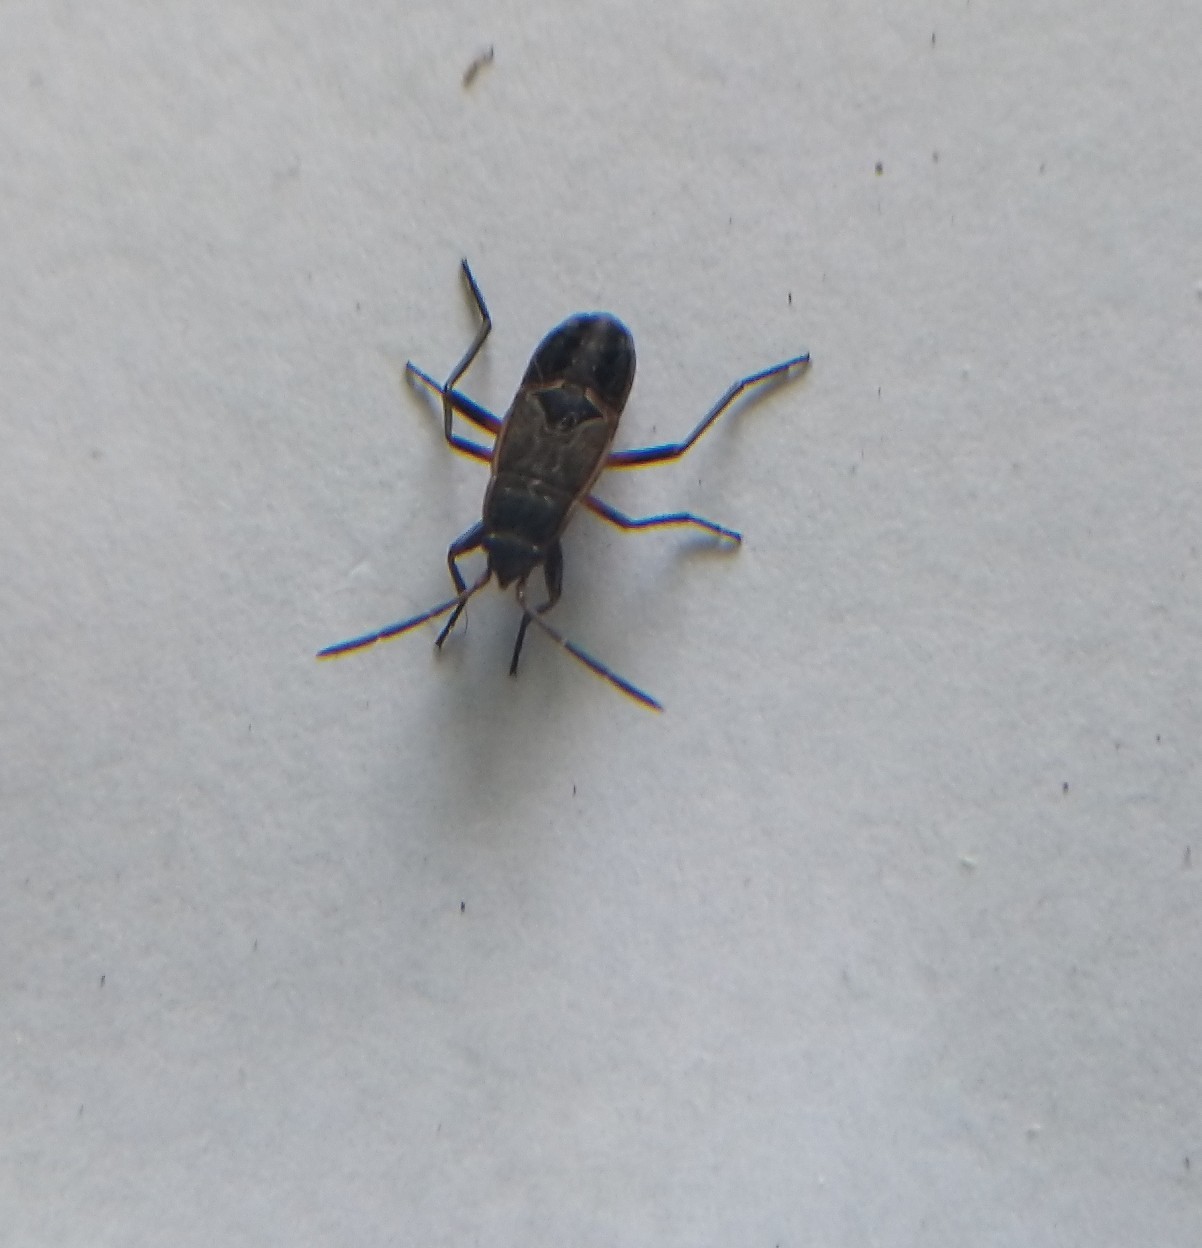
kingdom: Animalia
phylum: Arthropoda
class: Insecta
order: Hemiptera
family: Rhyparochromidae
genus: Rhyparochromus
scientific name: Rhyparochromus pini
